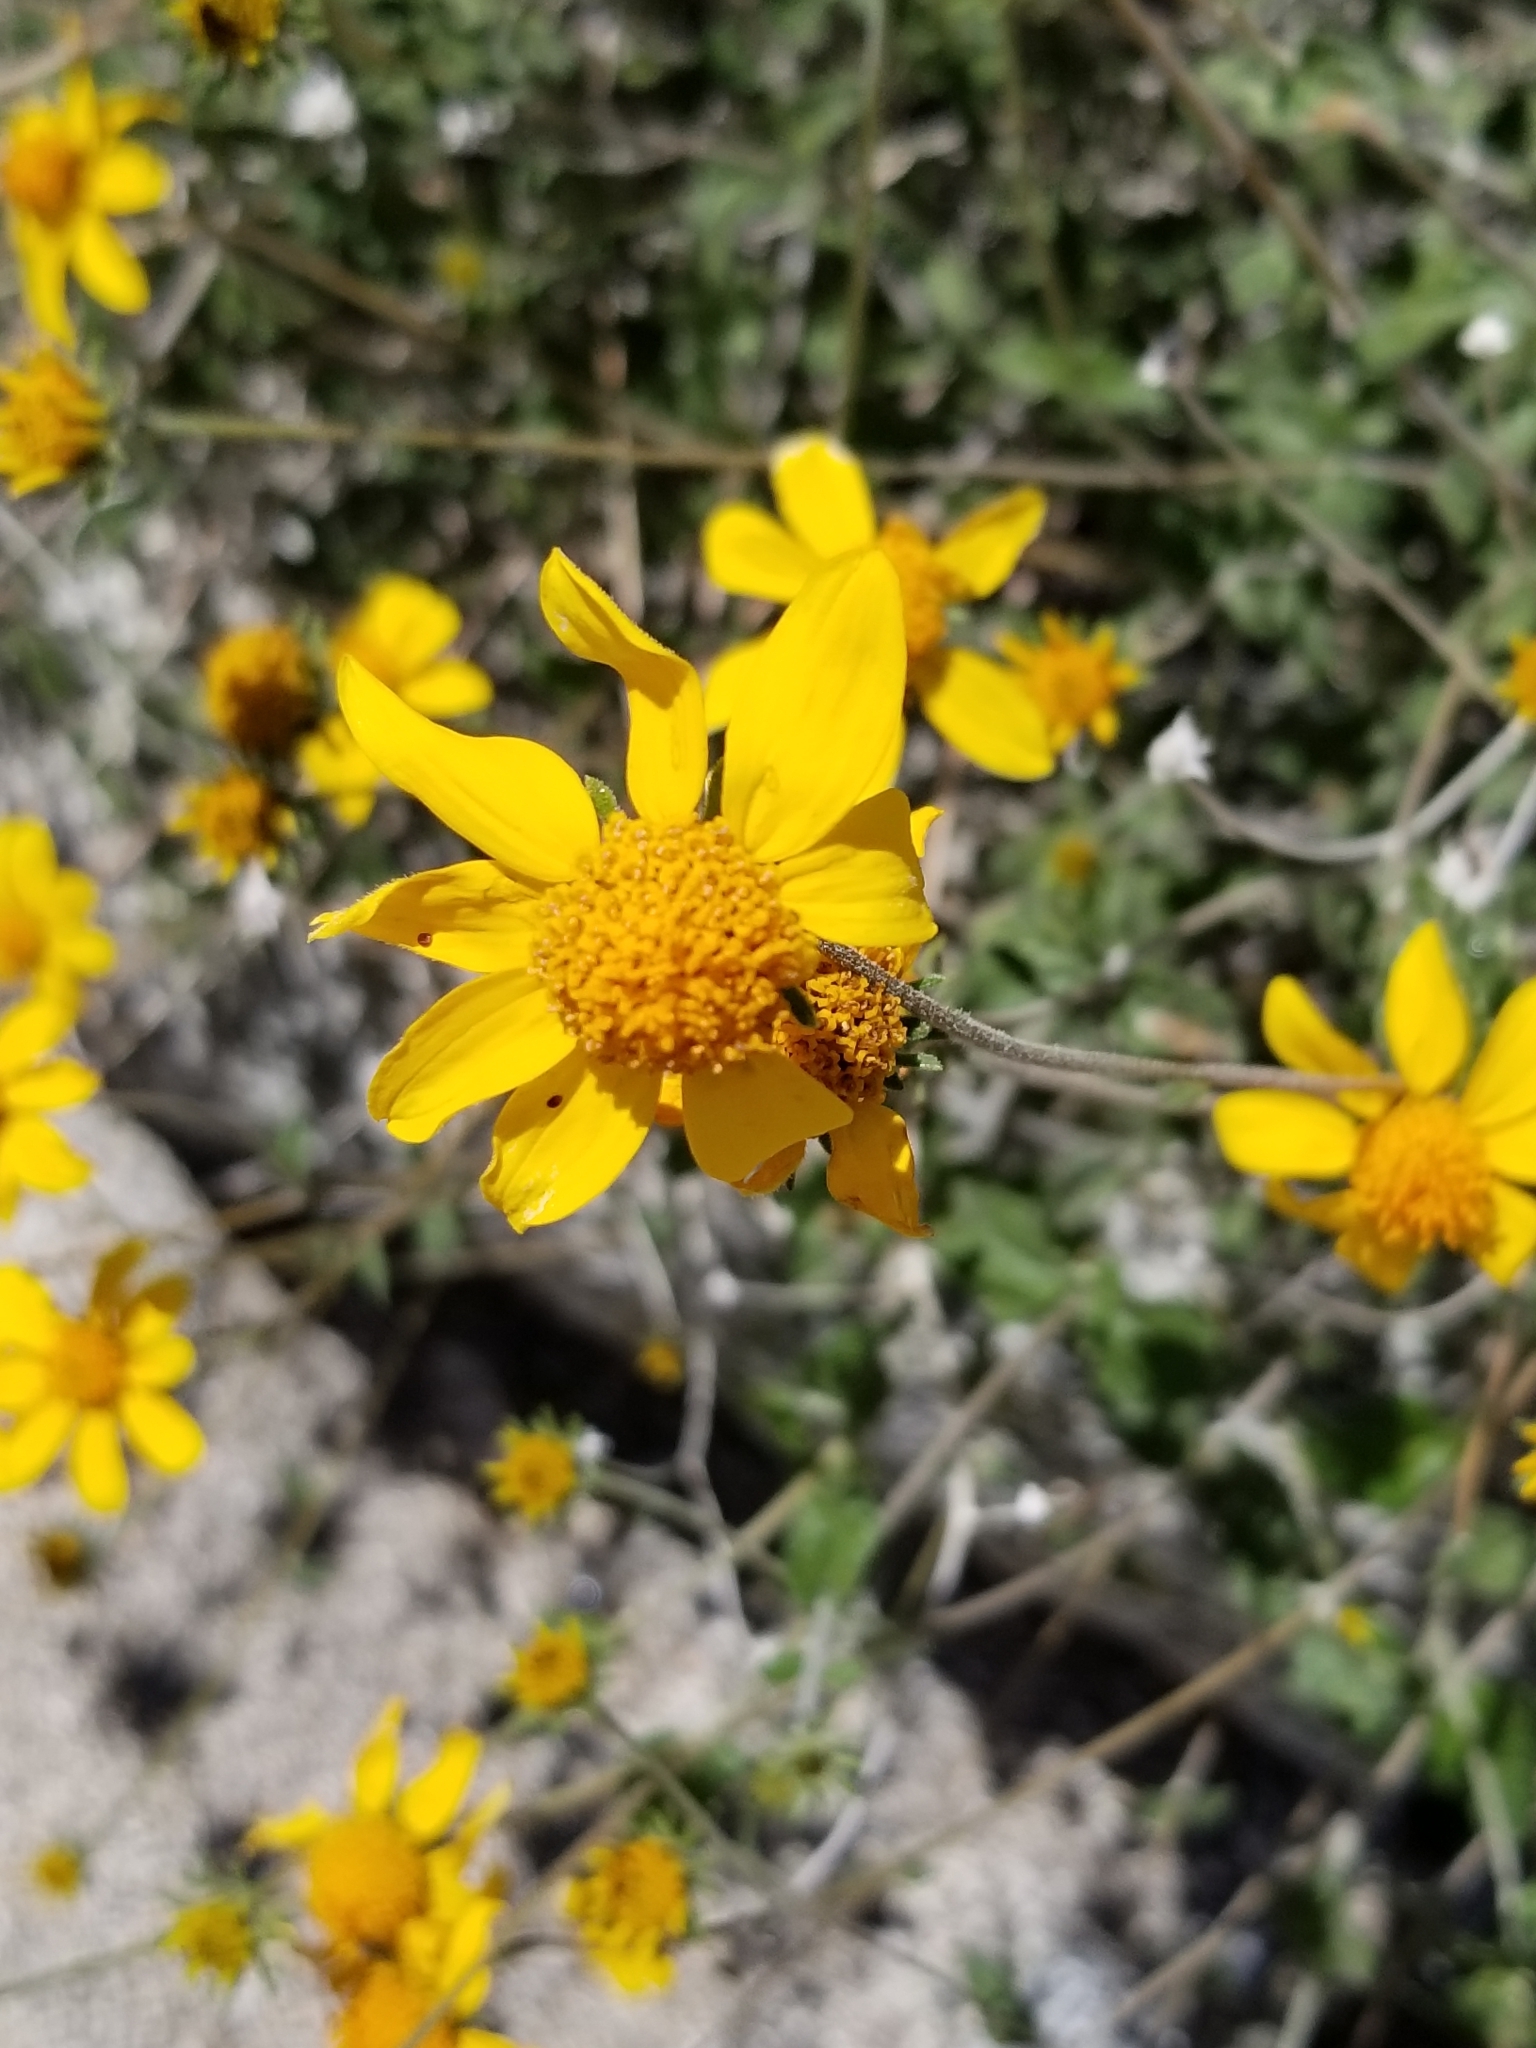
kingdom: Plantae
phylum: Tracheophyta
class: Magnoliopsida
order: Asterales
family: Asteraceae
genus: Bahiopsis
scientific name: Bahiopsis parishii
